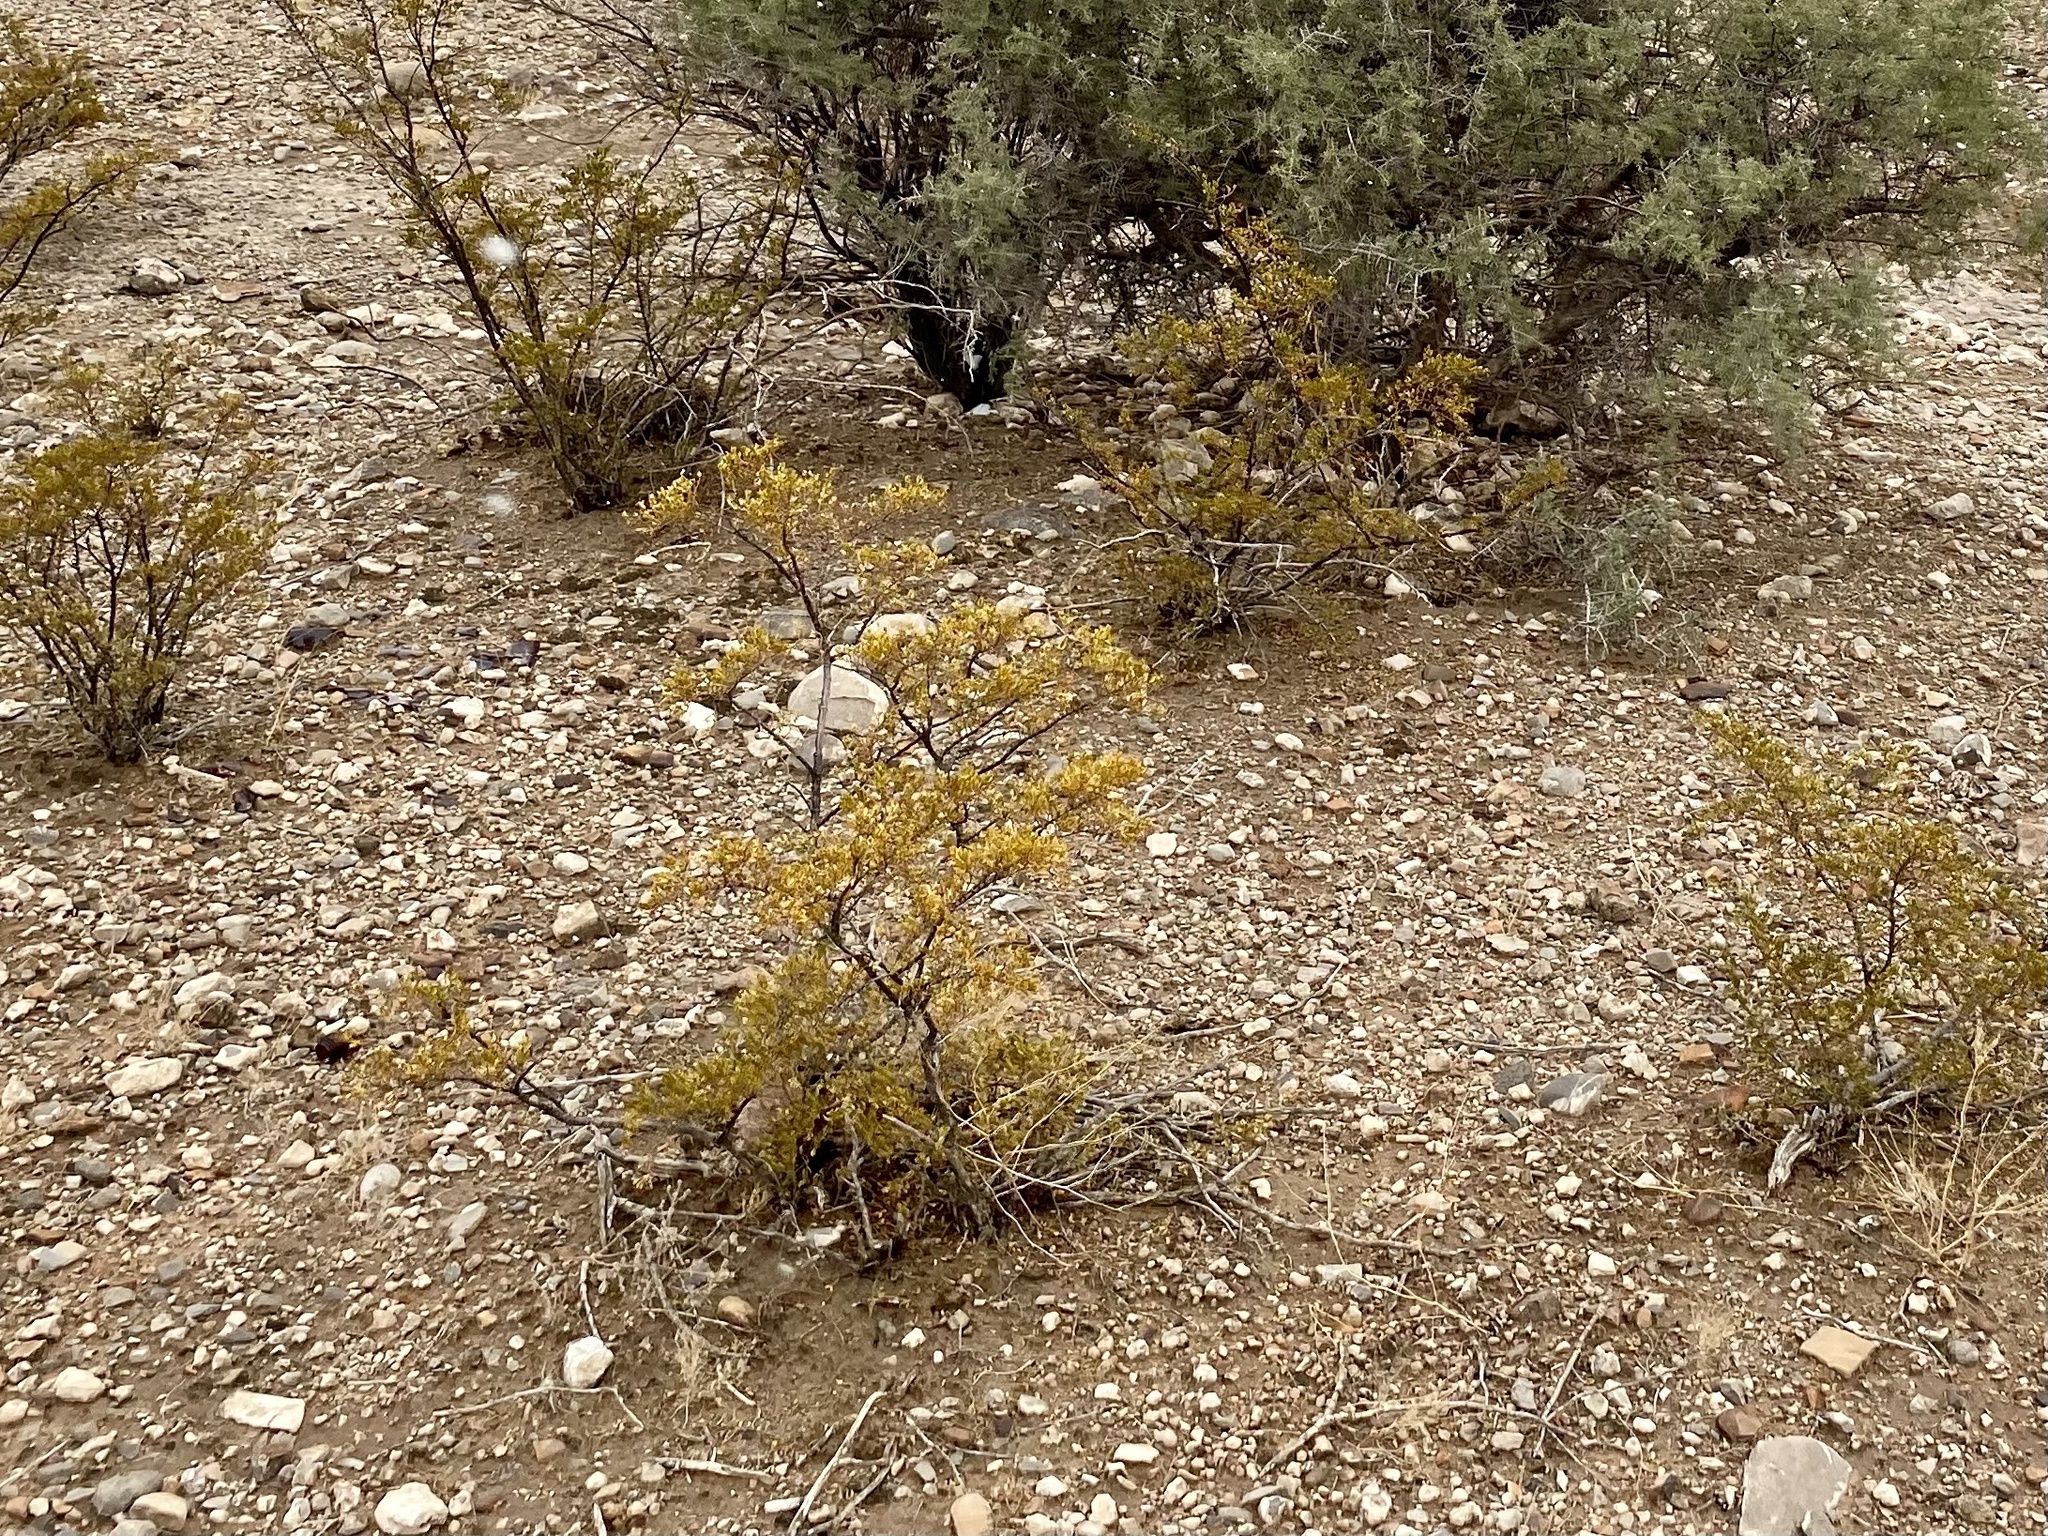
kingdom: Plantae
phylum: Tracheophyta
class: Magnoliopsida
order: Zygophyllales
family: Zygophyllaceae
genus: Larrea
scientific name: Larrea tridentata
